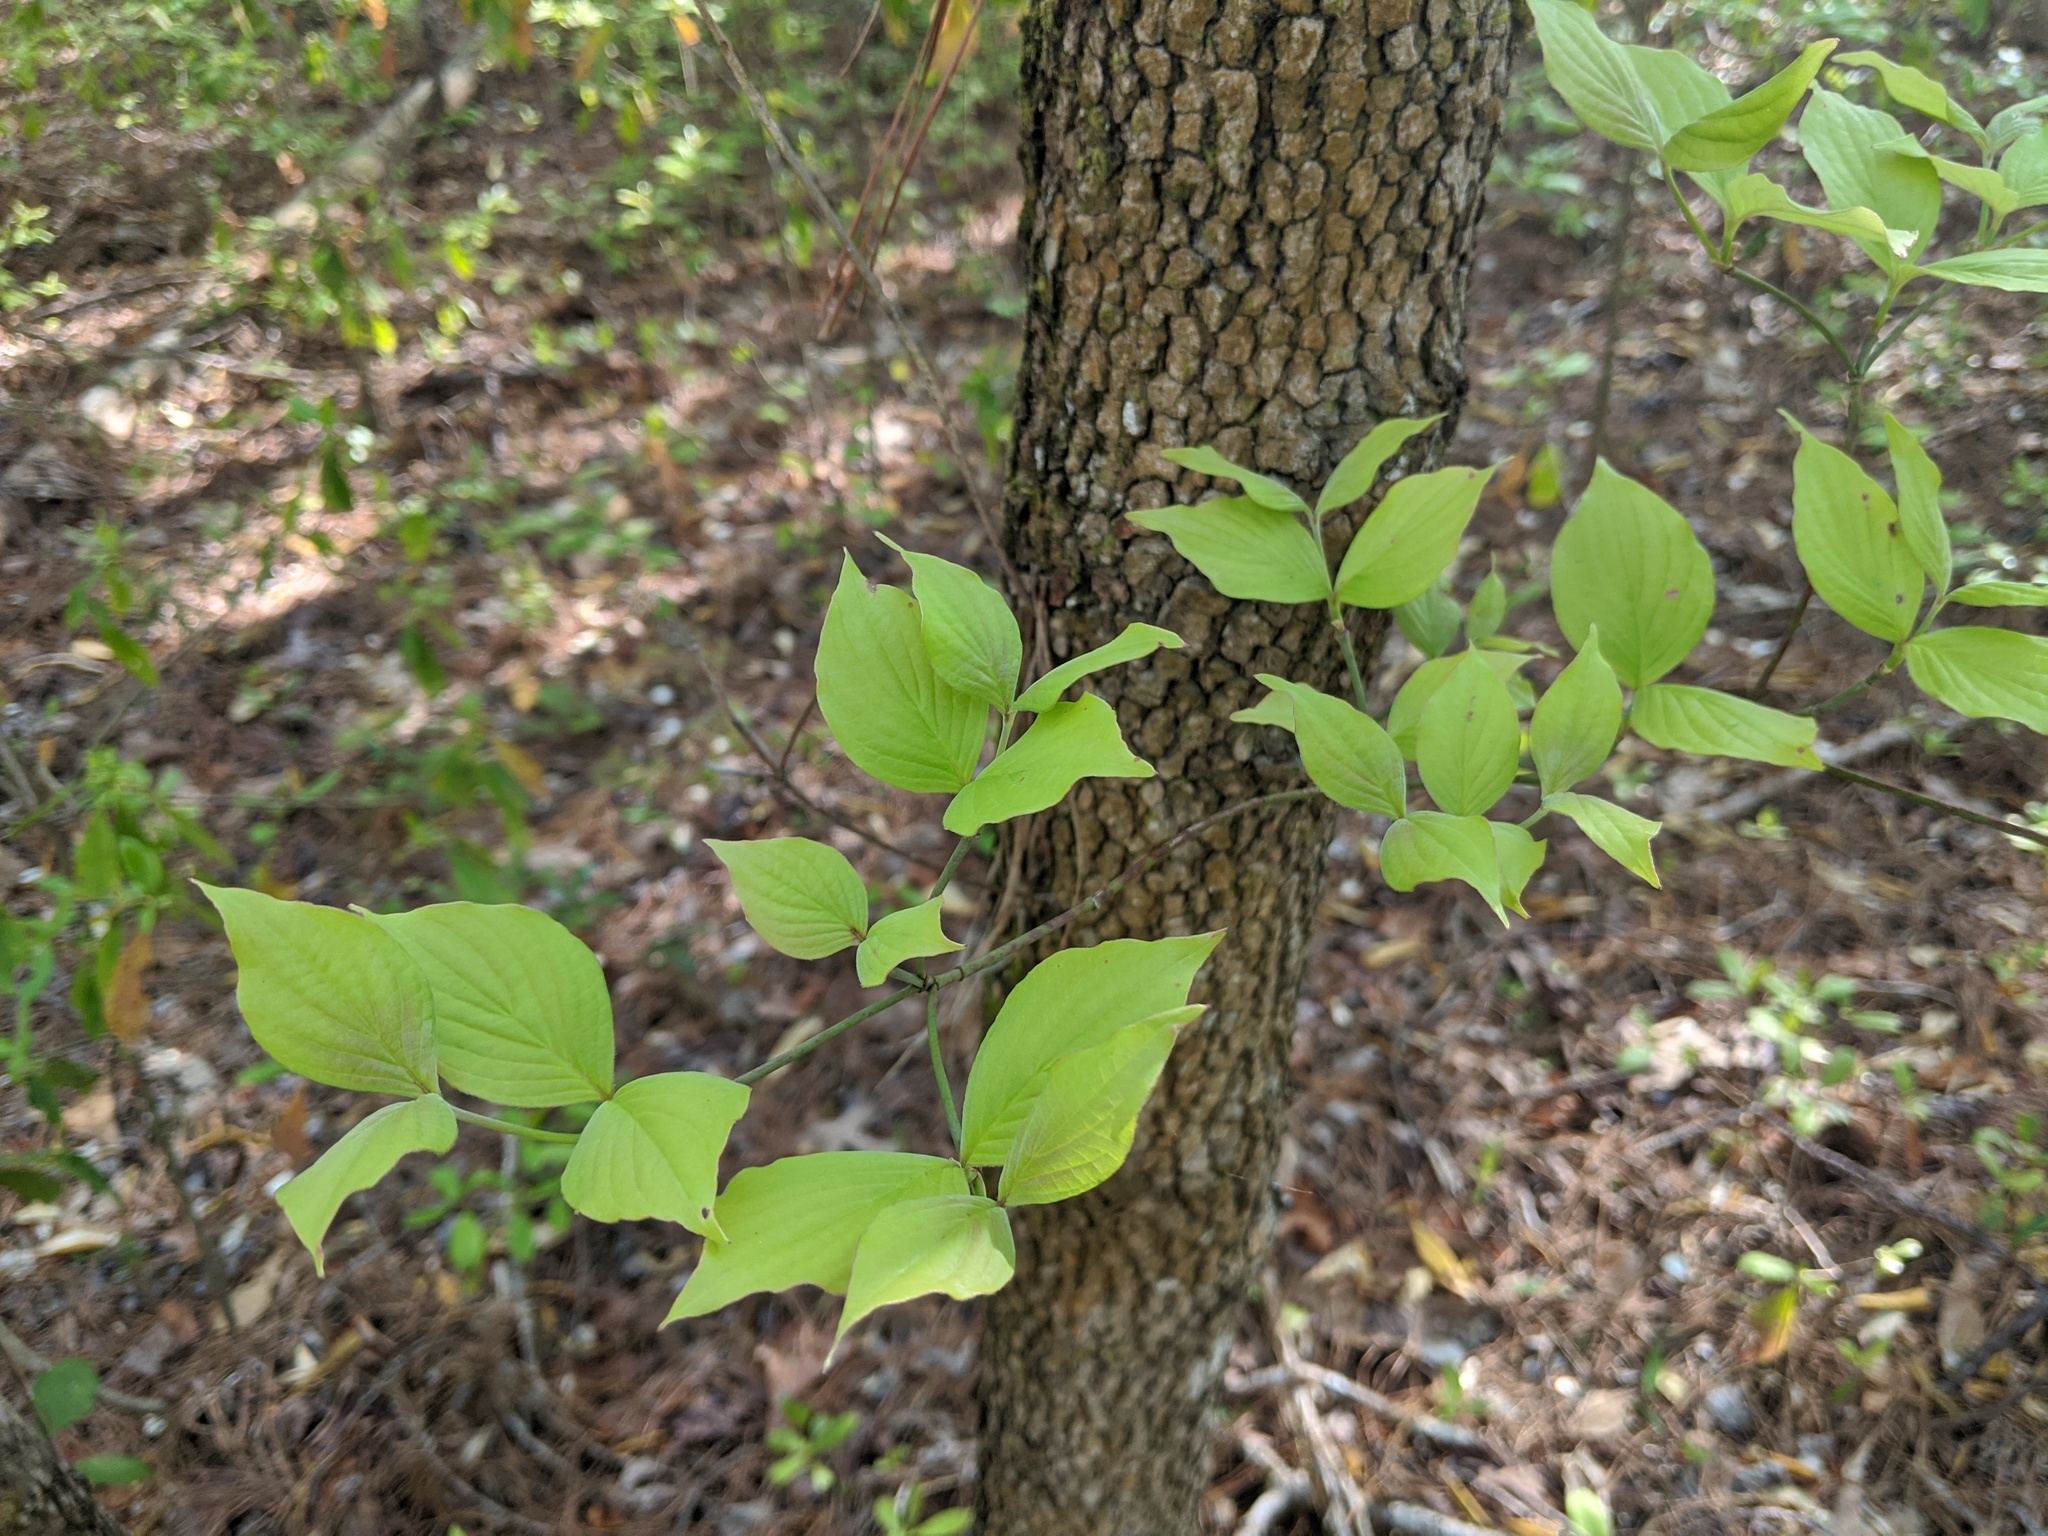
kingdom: Plantae
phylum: Tracheophyta
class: Magnoliopsida
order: Cornales
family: Cornaceae
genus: Cornus
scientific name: Cornus florida
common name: Flowering dogwood
